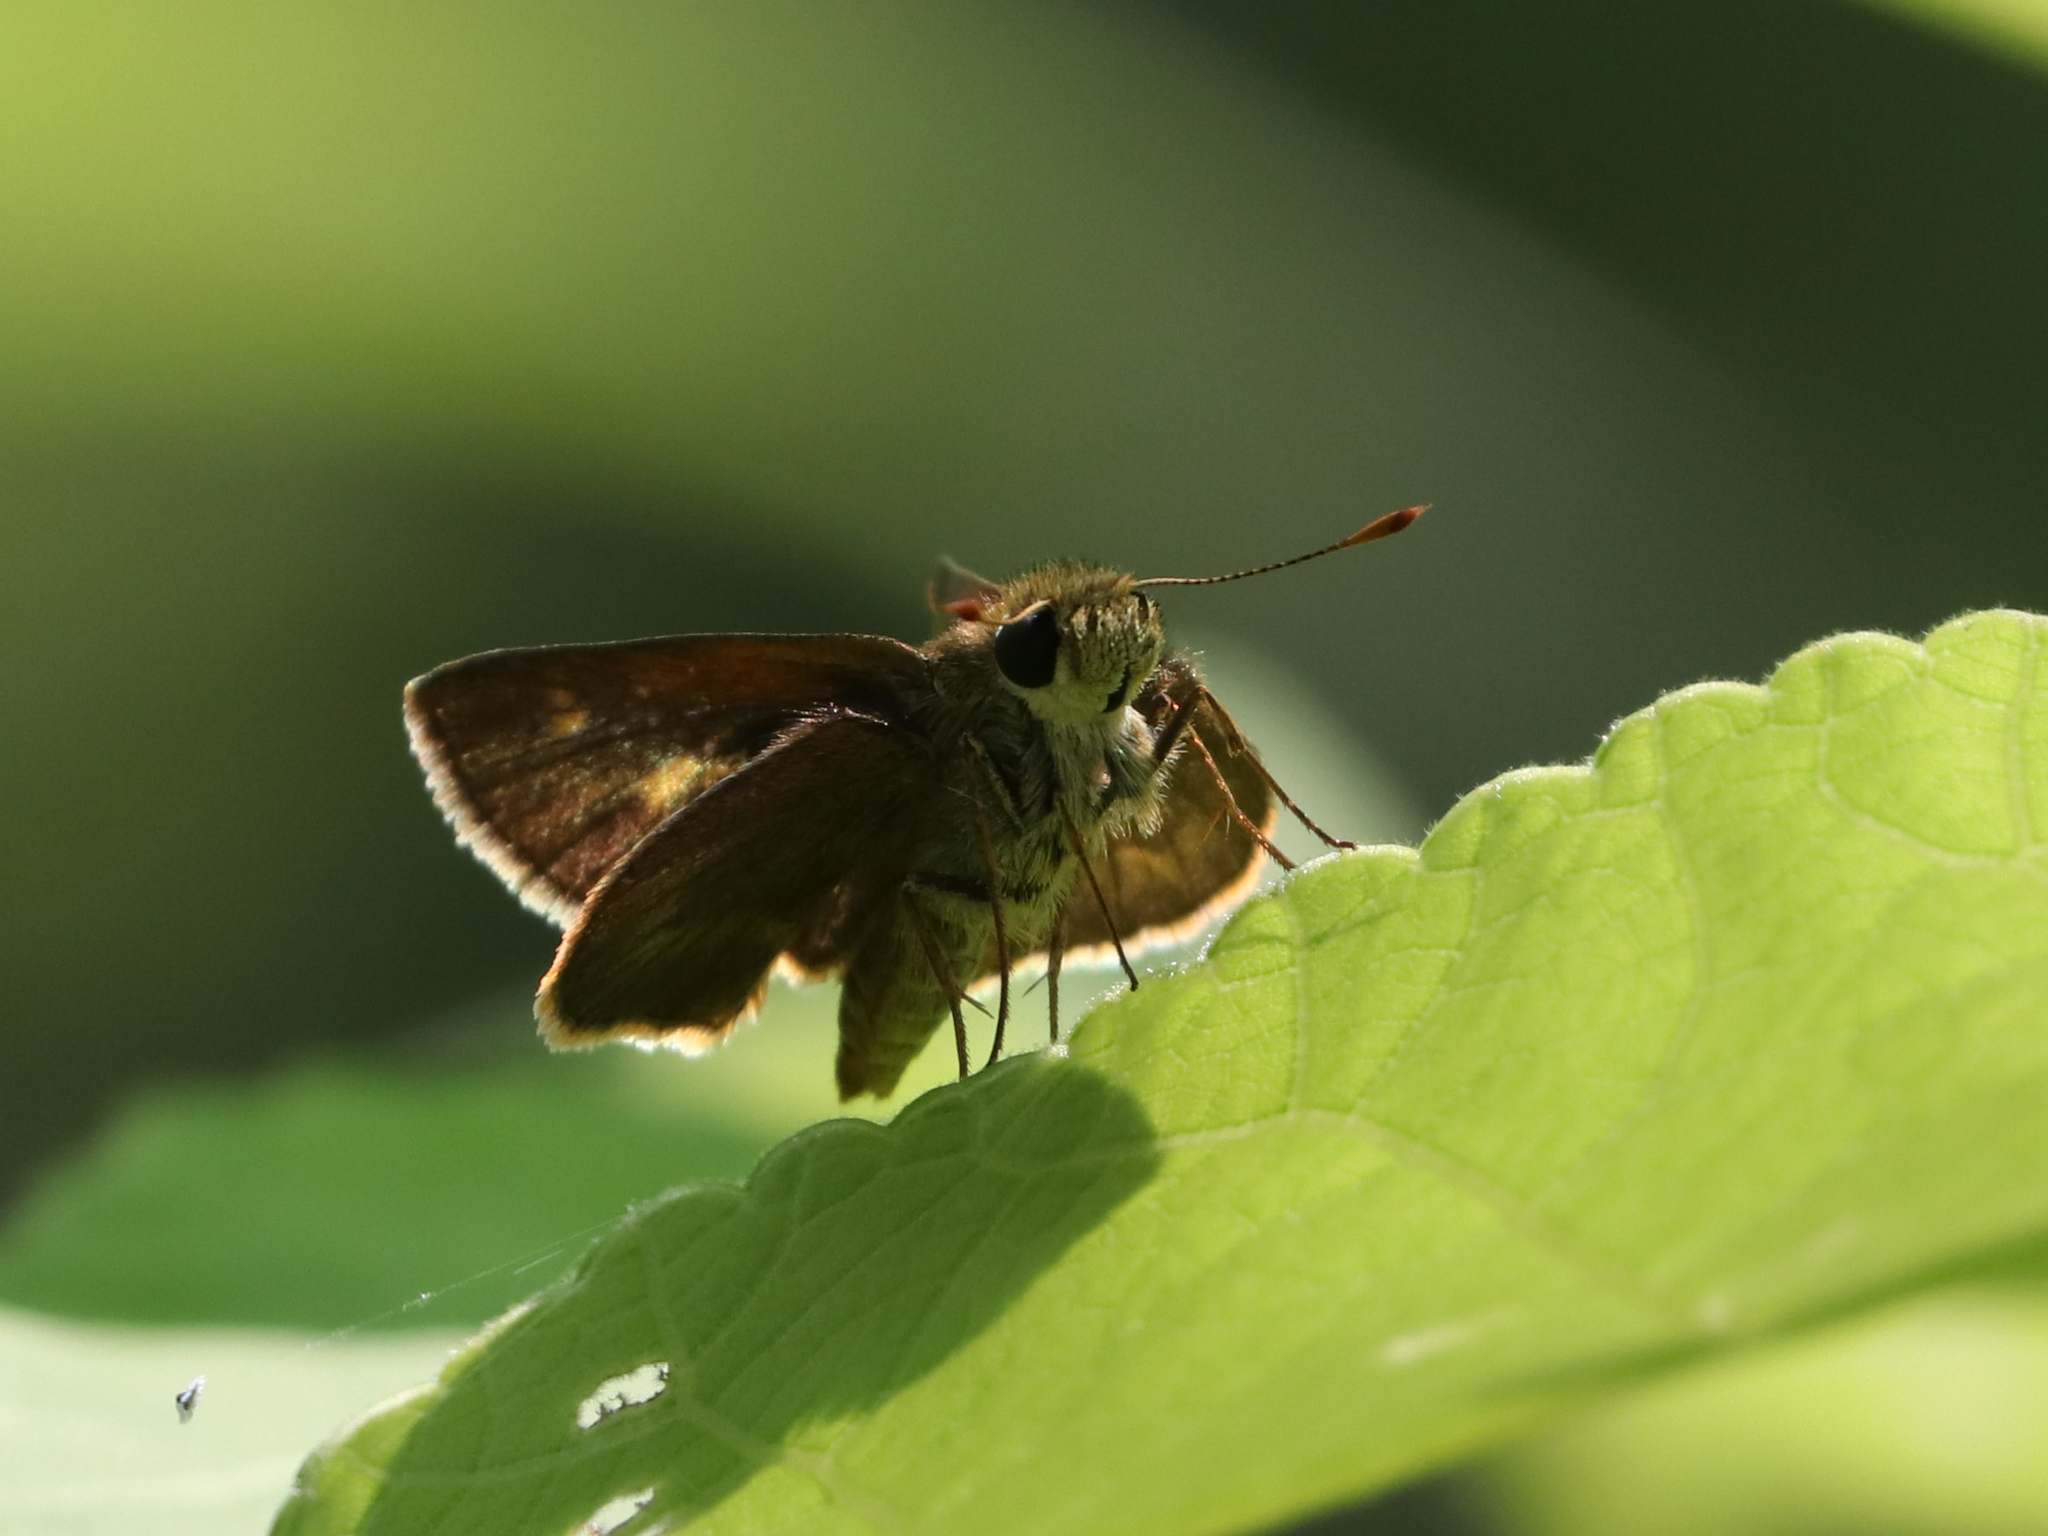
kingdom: Animalia
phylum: Arthropoda
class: Insecta
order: Lepidoptera
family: Hesperiidae
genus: Polites
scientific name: Polites egeremet
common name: Northern broken-dash
